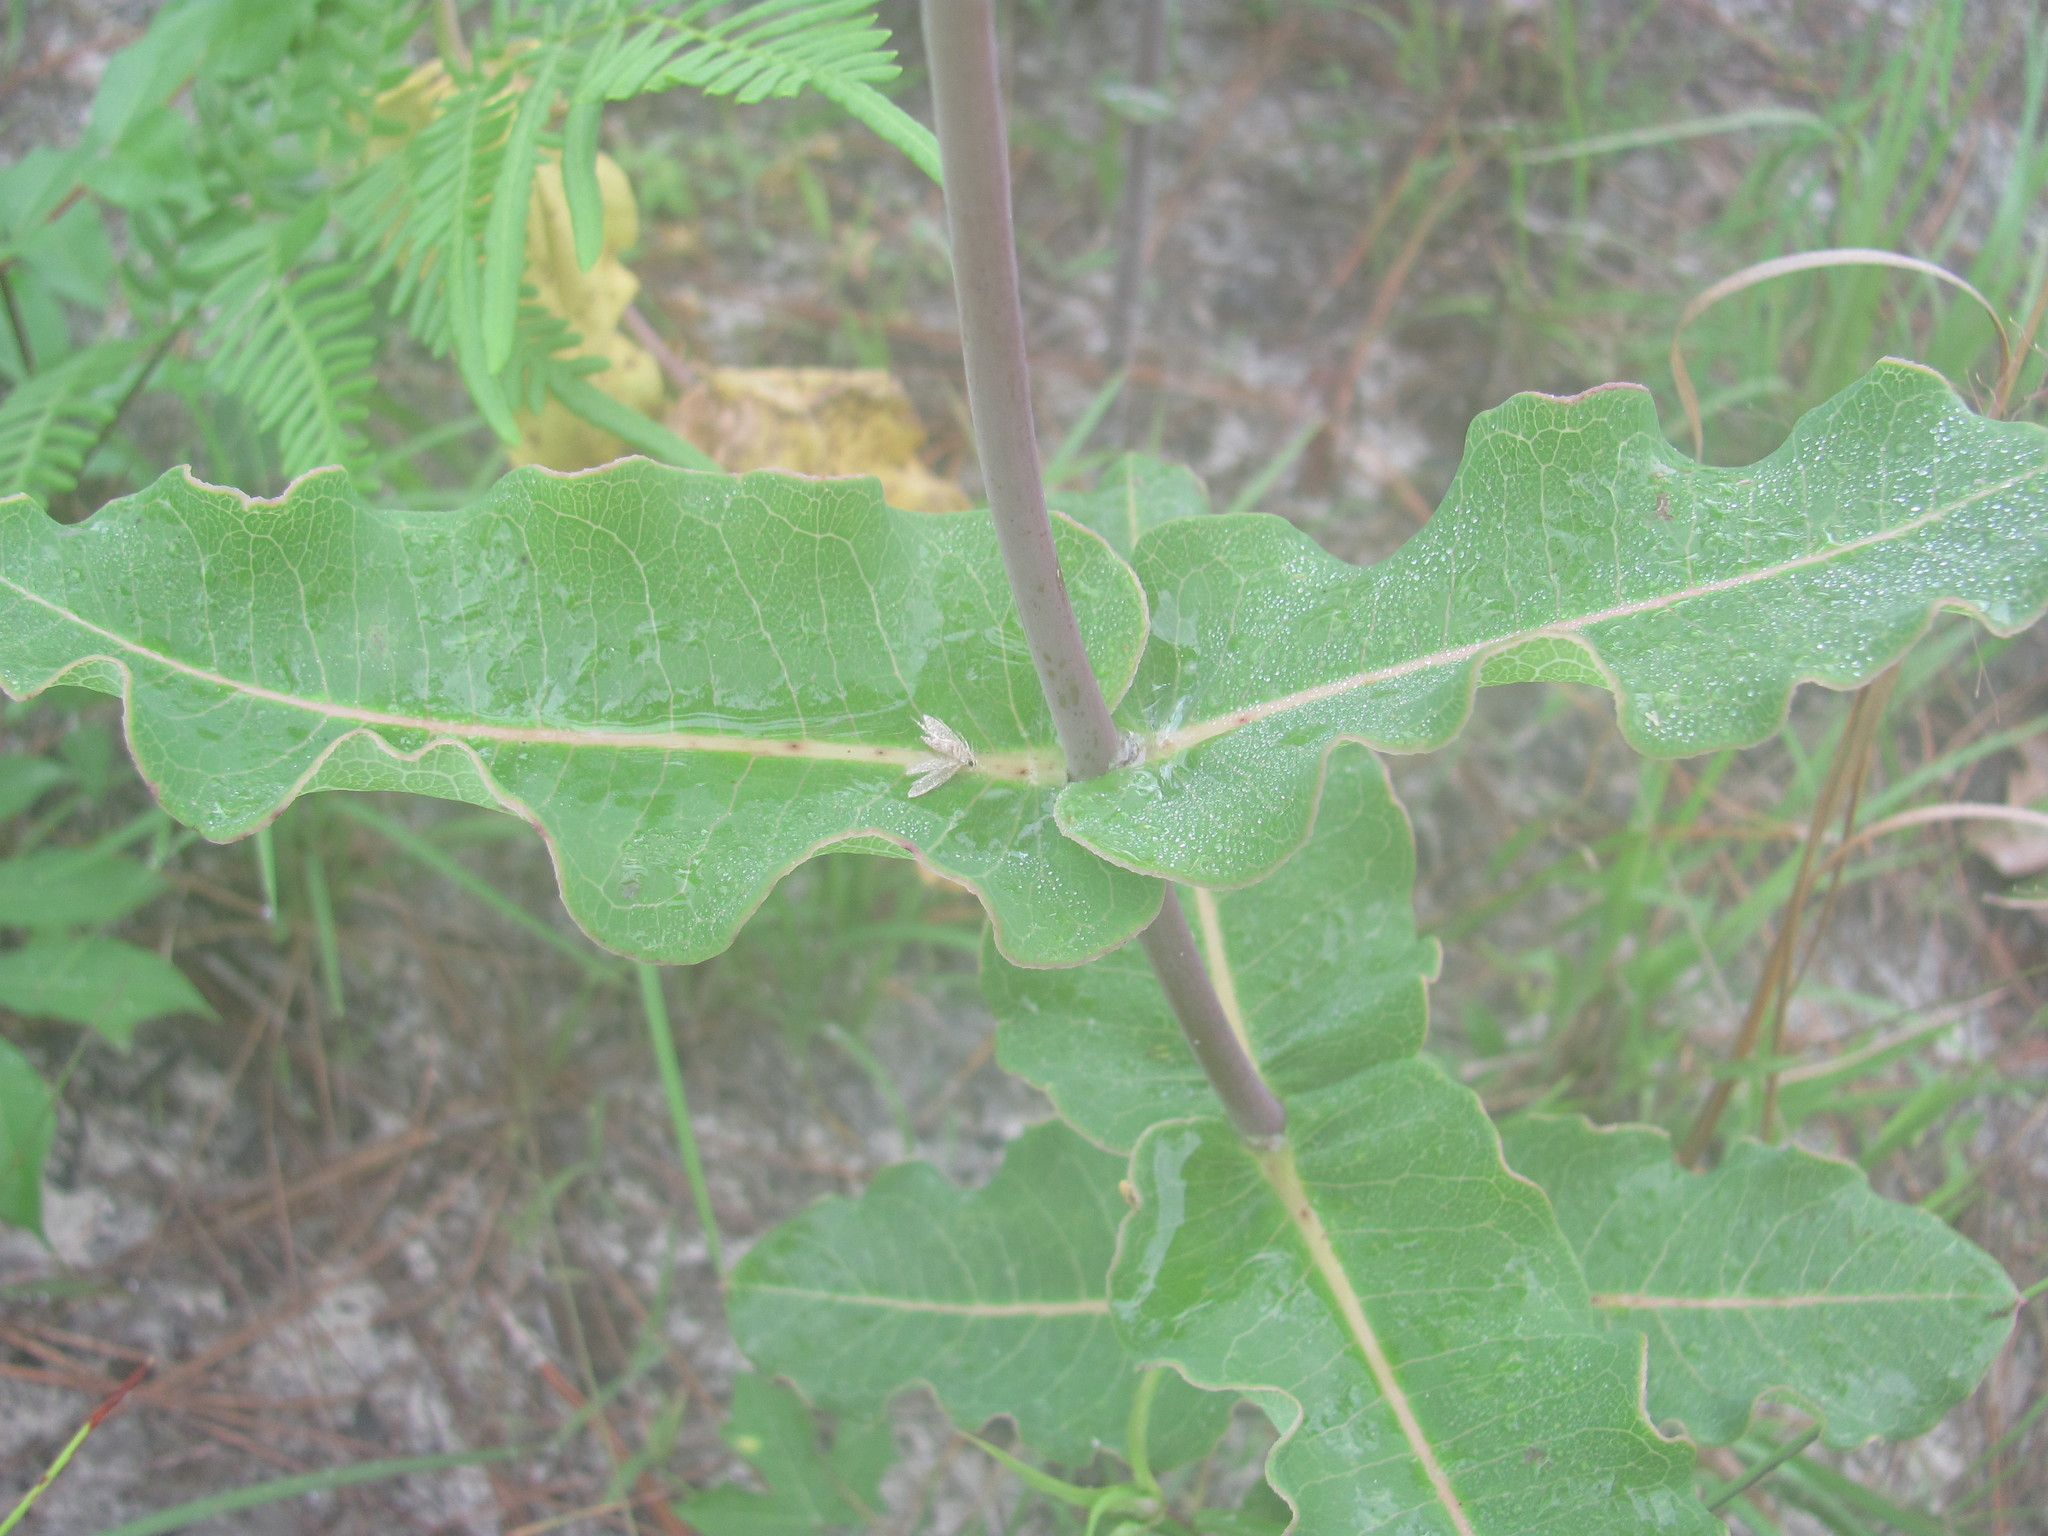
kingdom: Plantae
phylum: Tracheophyta
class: Magnoliopsida
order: Gentianales
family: Apocynaceae
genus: Asclepias
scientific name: Asclepias amplexicaulis
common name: Blunt-leaf milkweed
